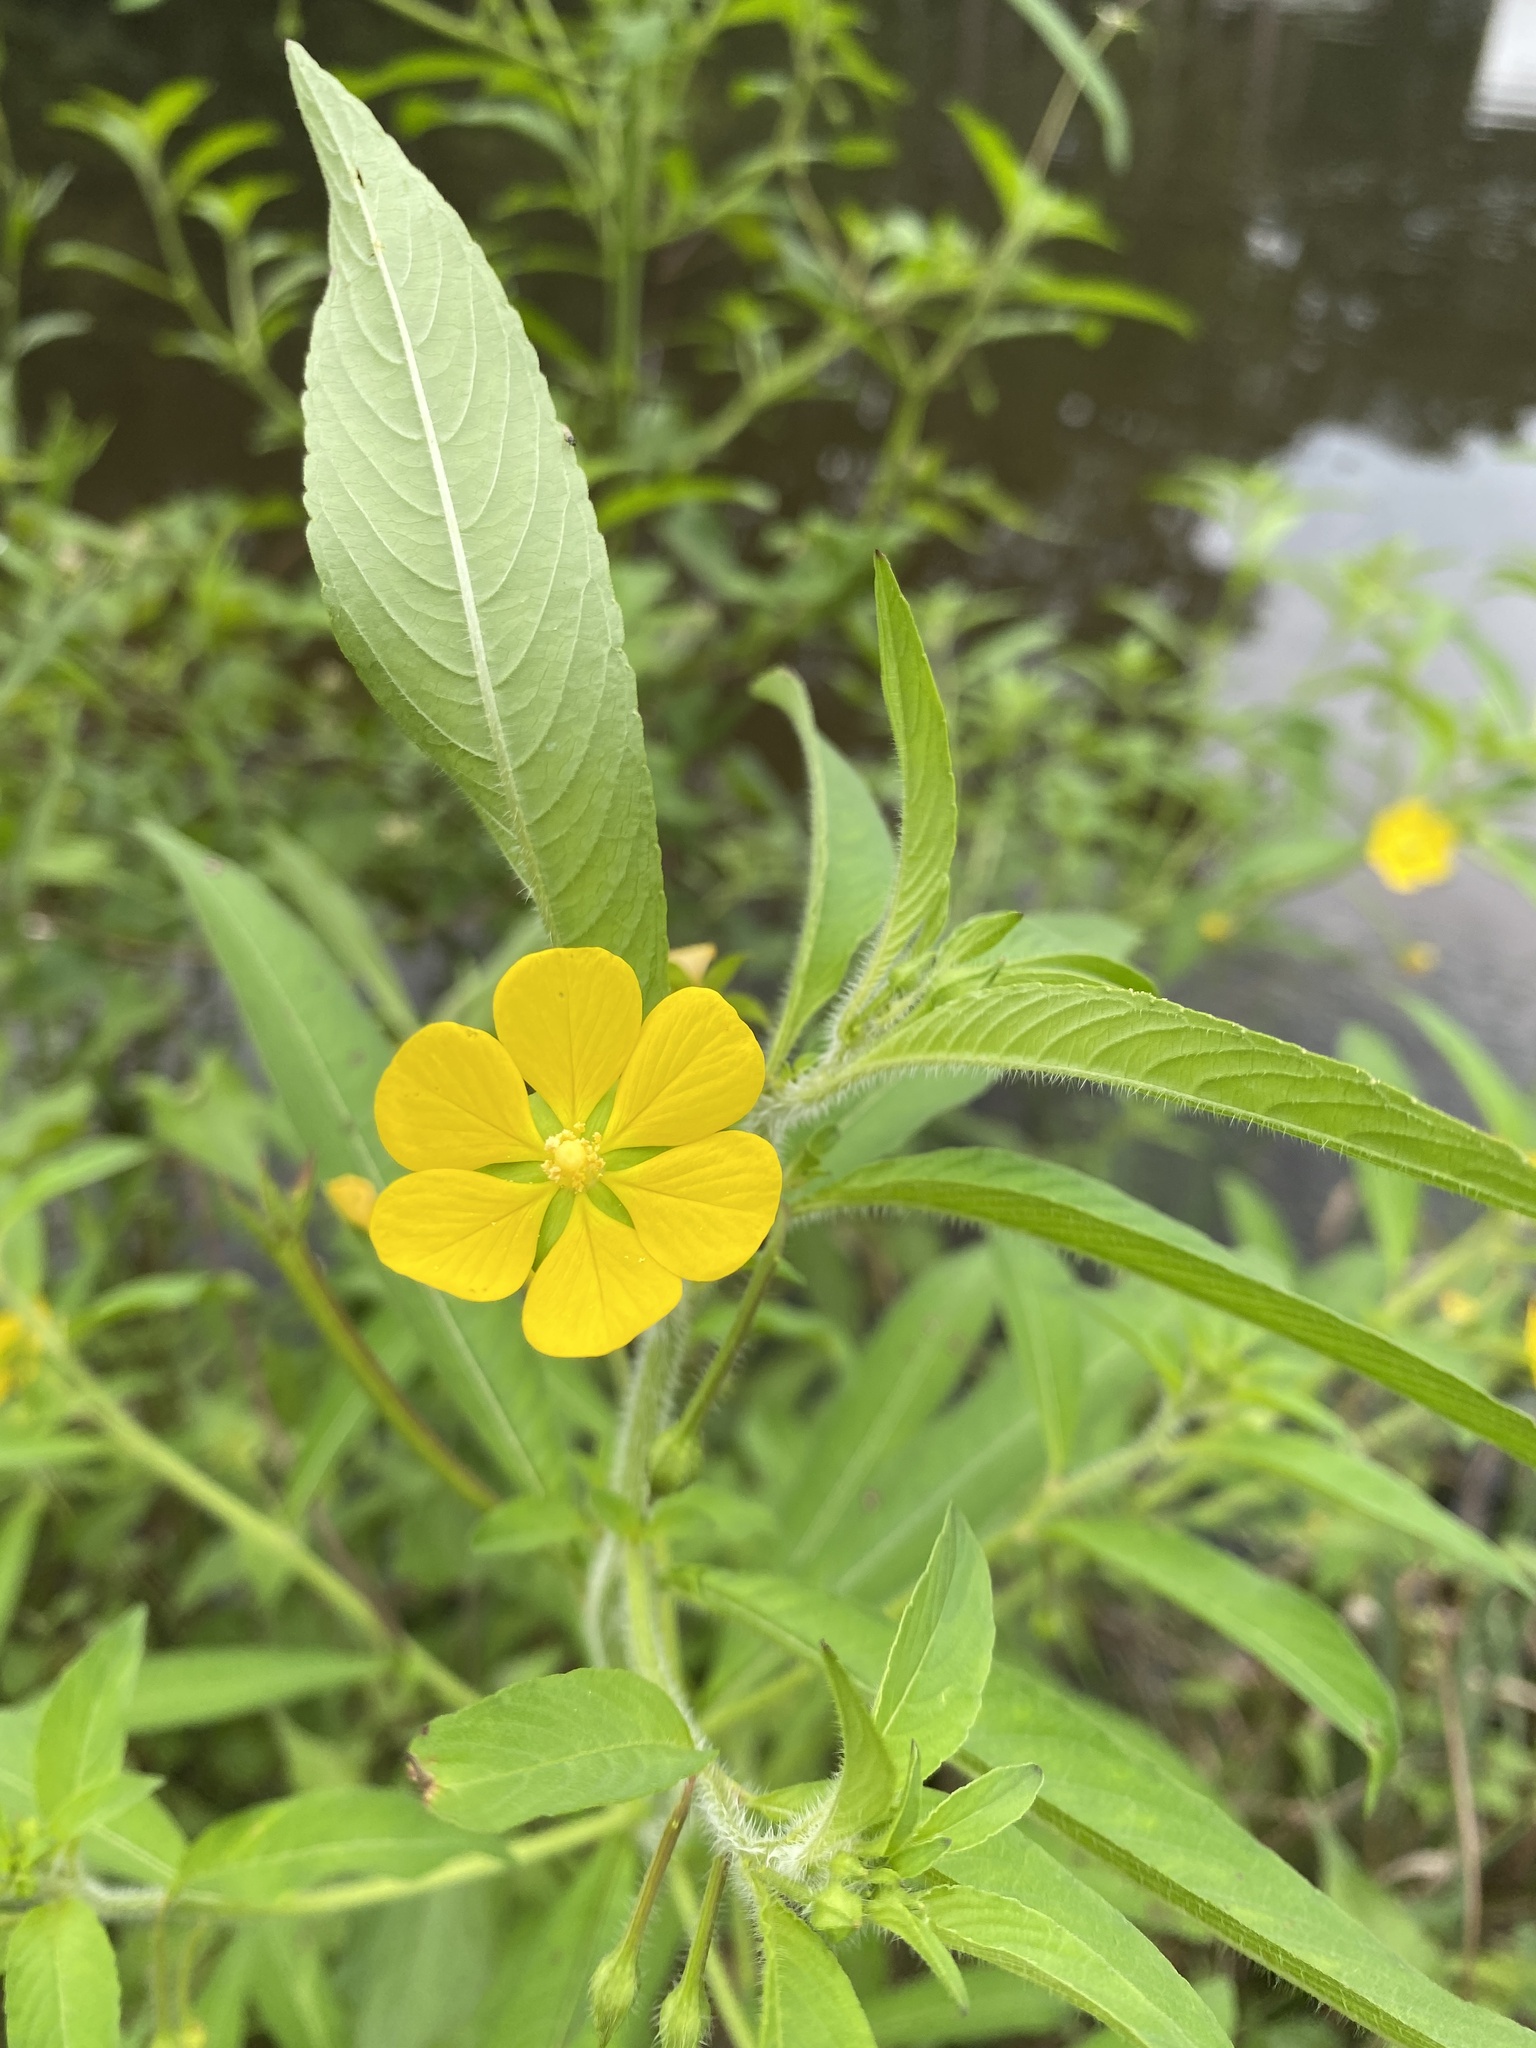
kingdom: Plantae
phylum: Tracheophyta
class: Magnoliopsida
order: Myrtales
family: Onagraceae
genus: Ludwigia
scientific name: Ludwigia leptocarpa
